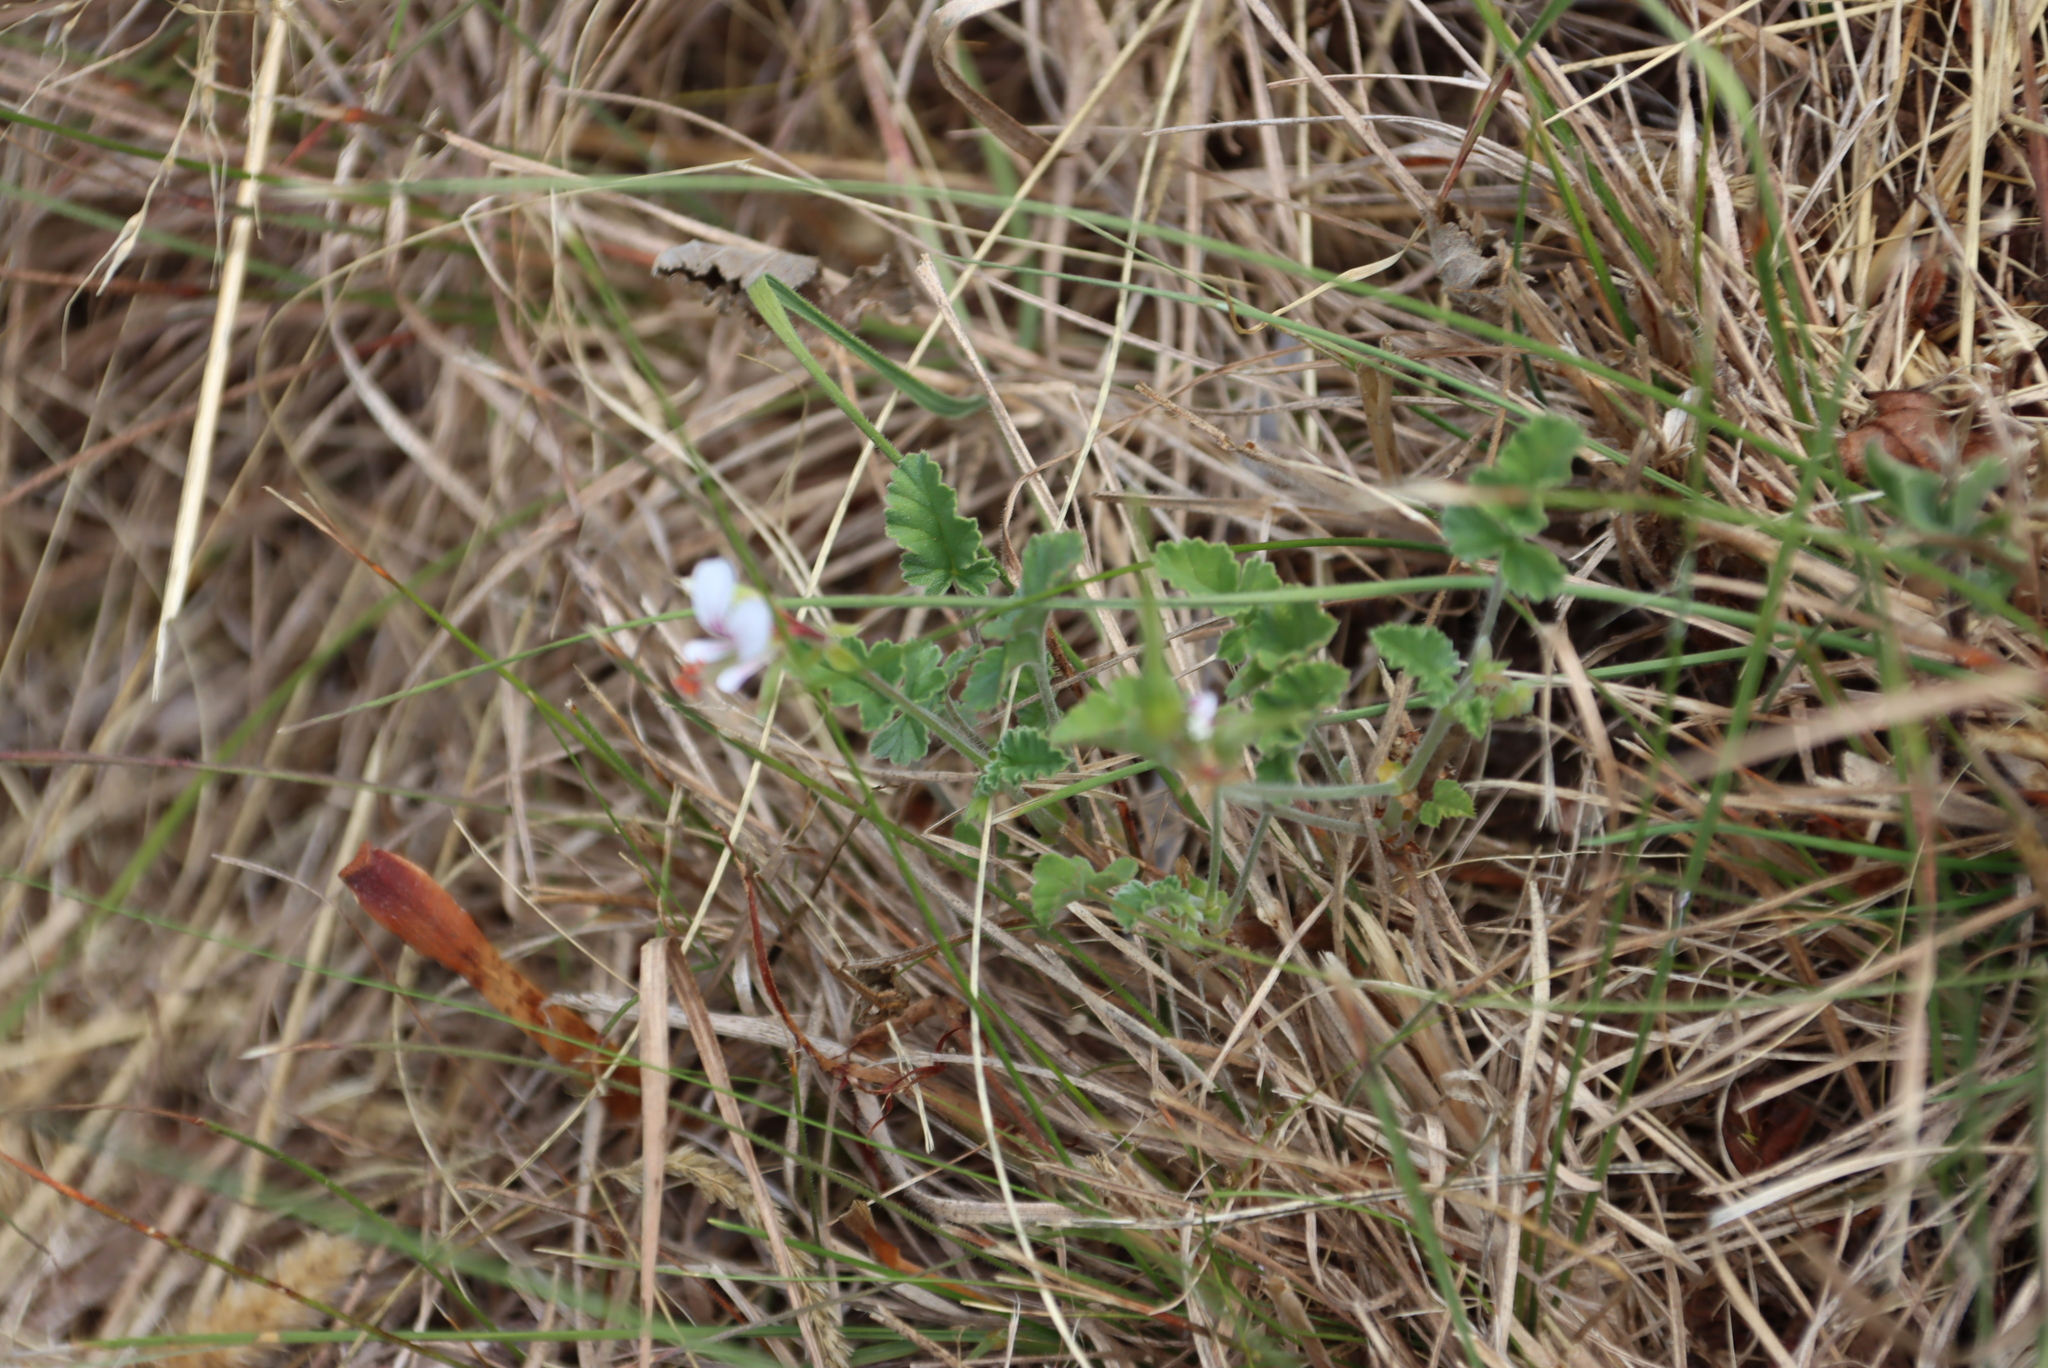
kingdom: Plantae
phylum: Tracheophyta
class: Magnoliopsida
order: Geraniales
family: Geraniaceae
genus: Pelargonium
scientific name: Pelargonium candicans
